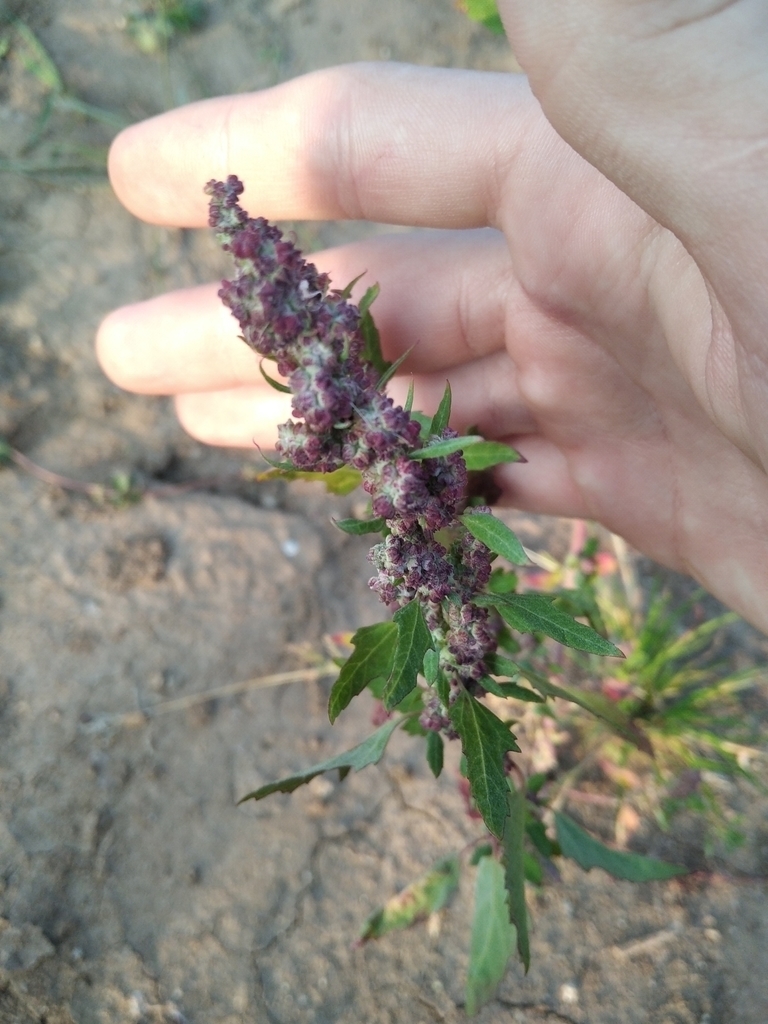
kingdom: Plantae
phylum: Tracheophyta
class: Magnoliopsida
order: Caryophyllales
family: Amaranthaceae
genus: Oxybasis
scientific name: Oxybasis rubra
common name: Red goosefoot
